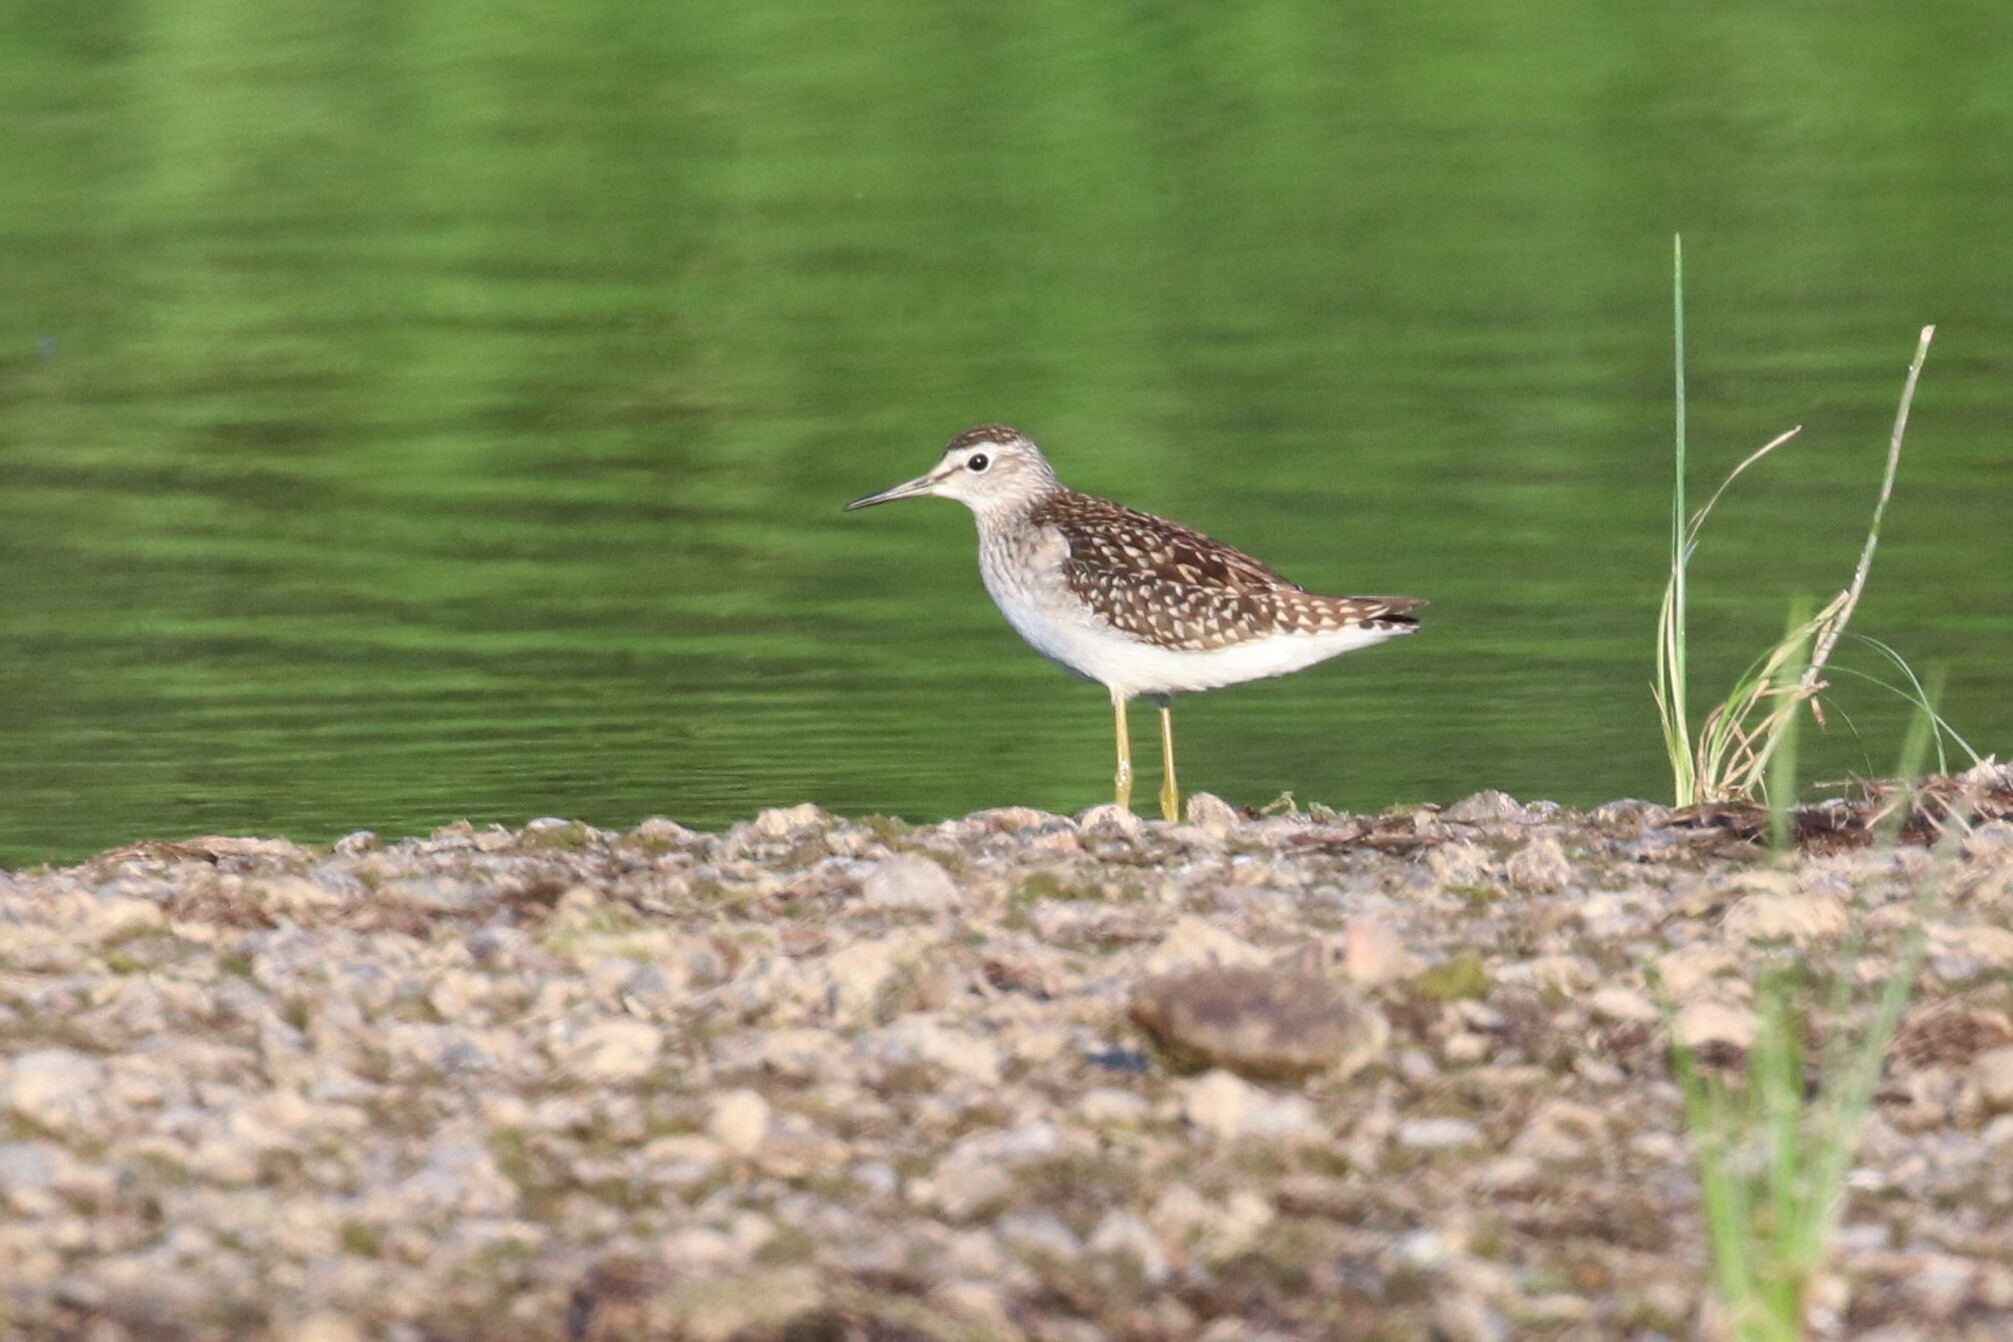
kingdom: Animalia
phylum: Chordata
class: Aves
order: Charadriiformes
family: Scolopacidae
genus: Tringa
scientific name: Tringa glareola
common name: Wood sandpiper
